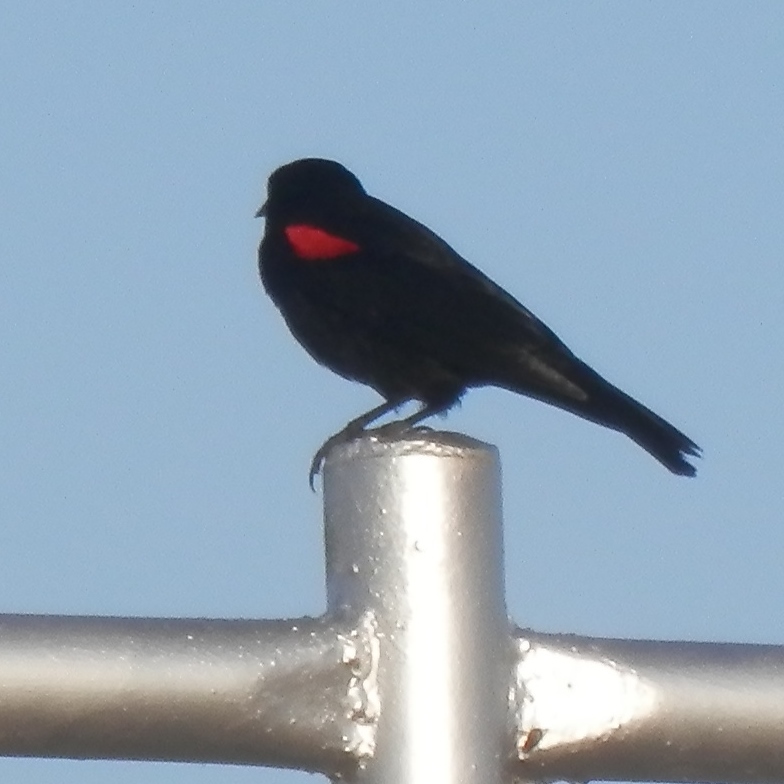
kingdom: Animalia
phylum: Chordata
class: Aves
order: Passeriformes
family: Icteridae
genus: Agelaius
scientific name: Agelaius phoeniceus
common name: Red-winged blackbird
